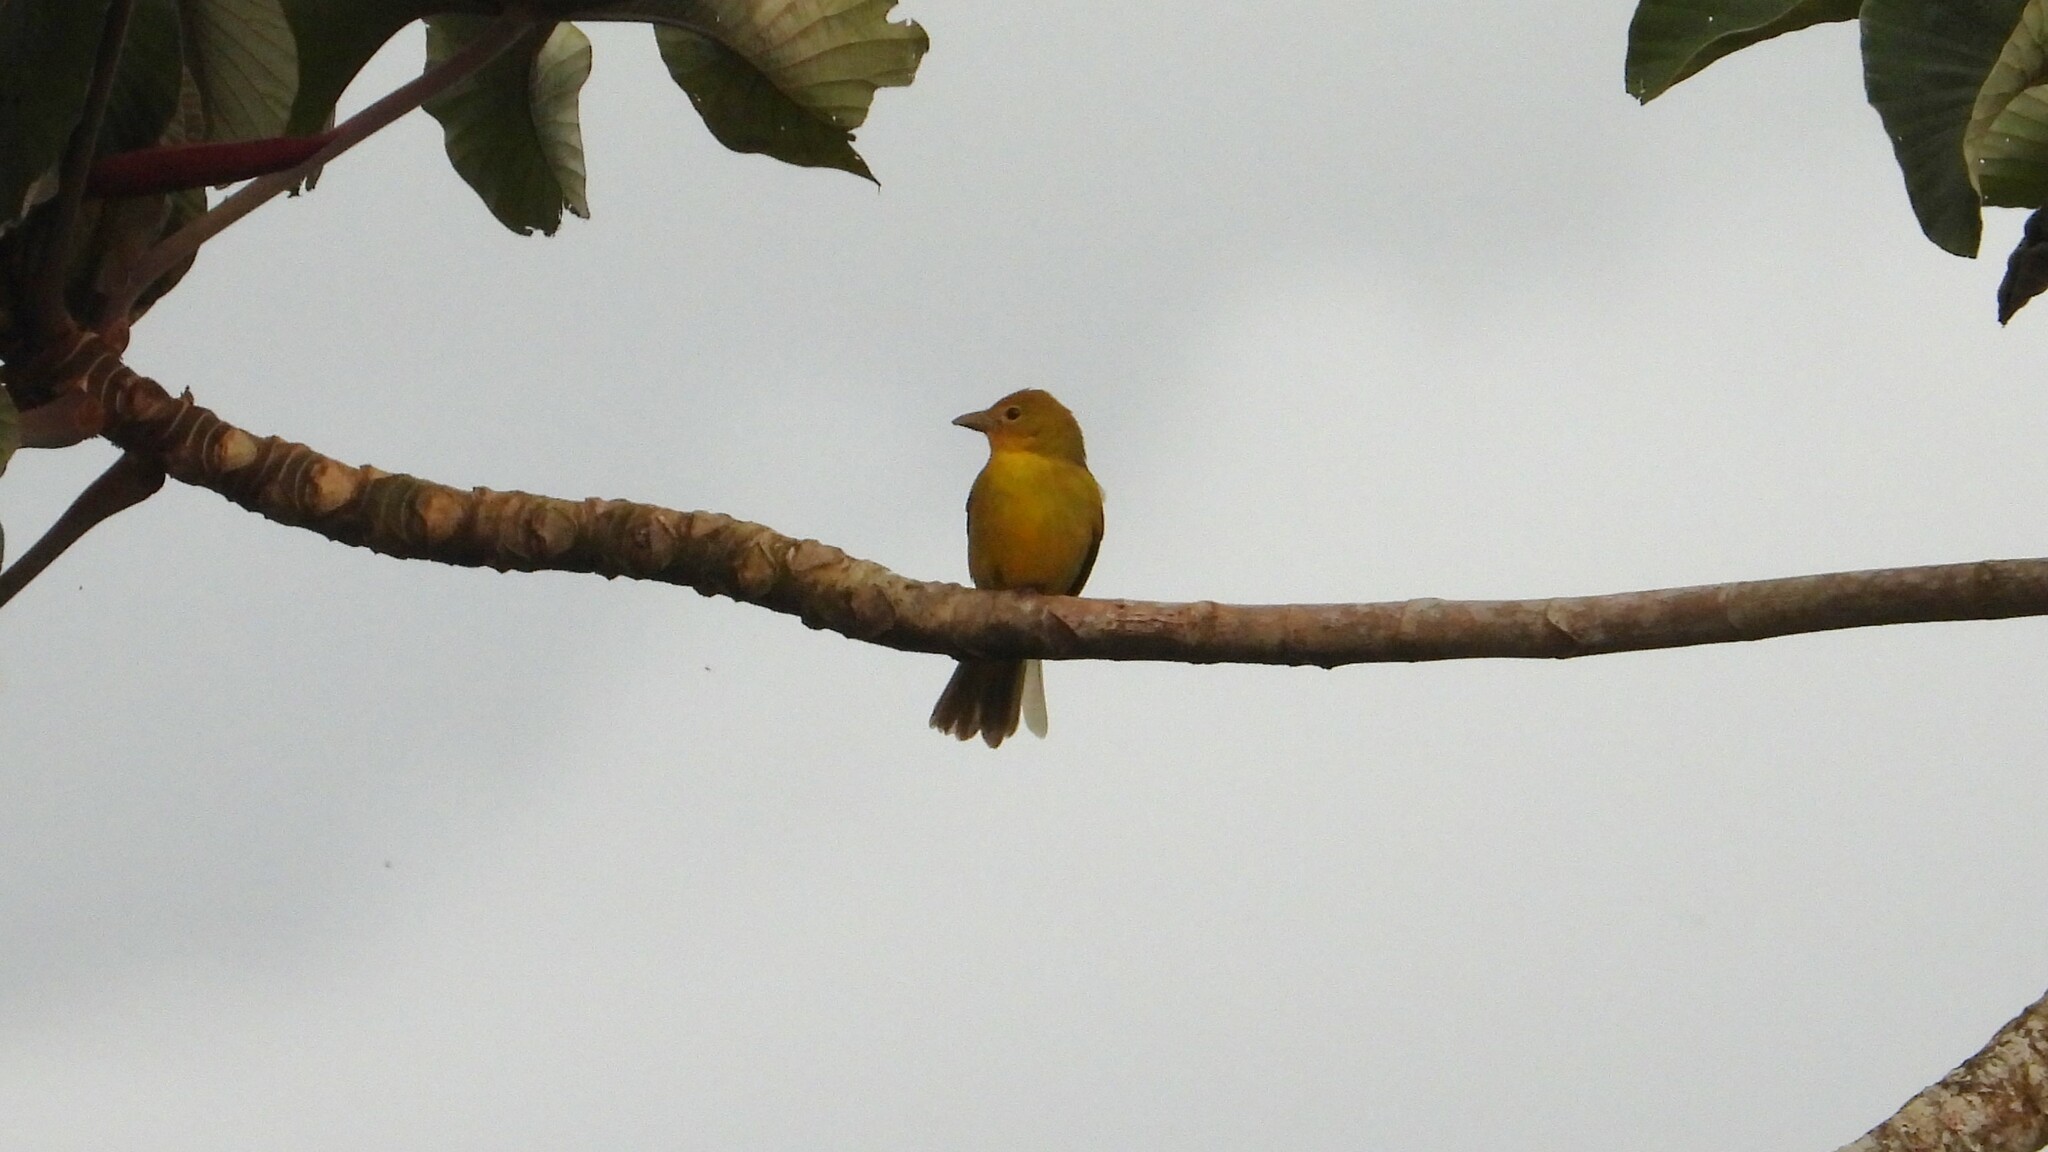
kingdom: Animalia
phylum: Chordata
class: Aves
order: Passeriformes
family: Cardinalidae
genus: Piranga
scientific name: Piranga rubra
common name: Summer tanager
